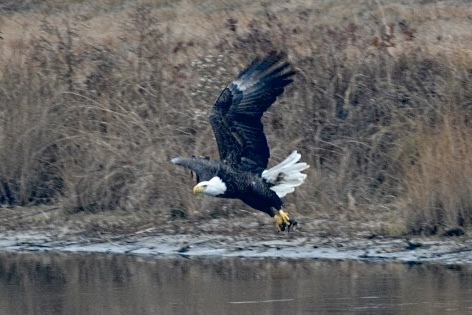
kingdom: Animalia
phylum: Chordata
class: Aves
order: Accipitriformes
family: Accipitridae
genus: Haliaeetus
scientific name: Haliaeetus leucocephalus
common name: Bald eagle
